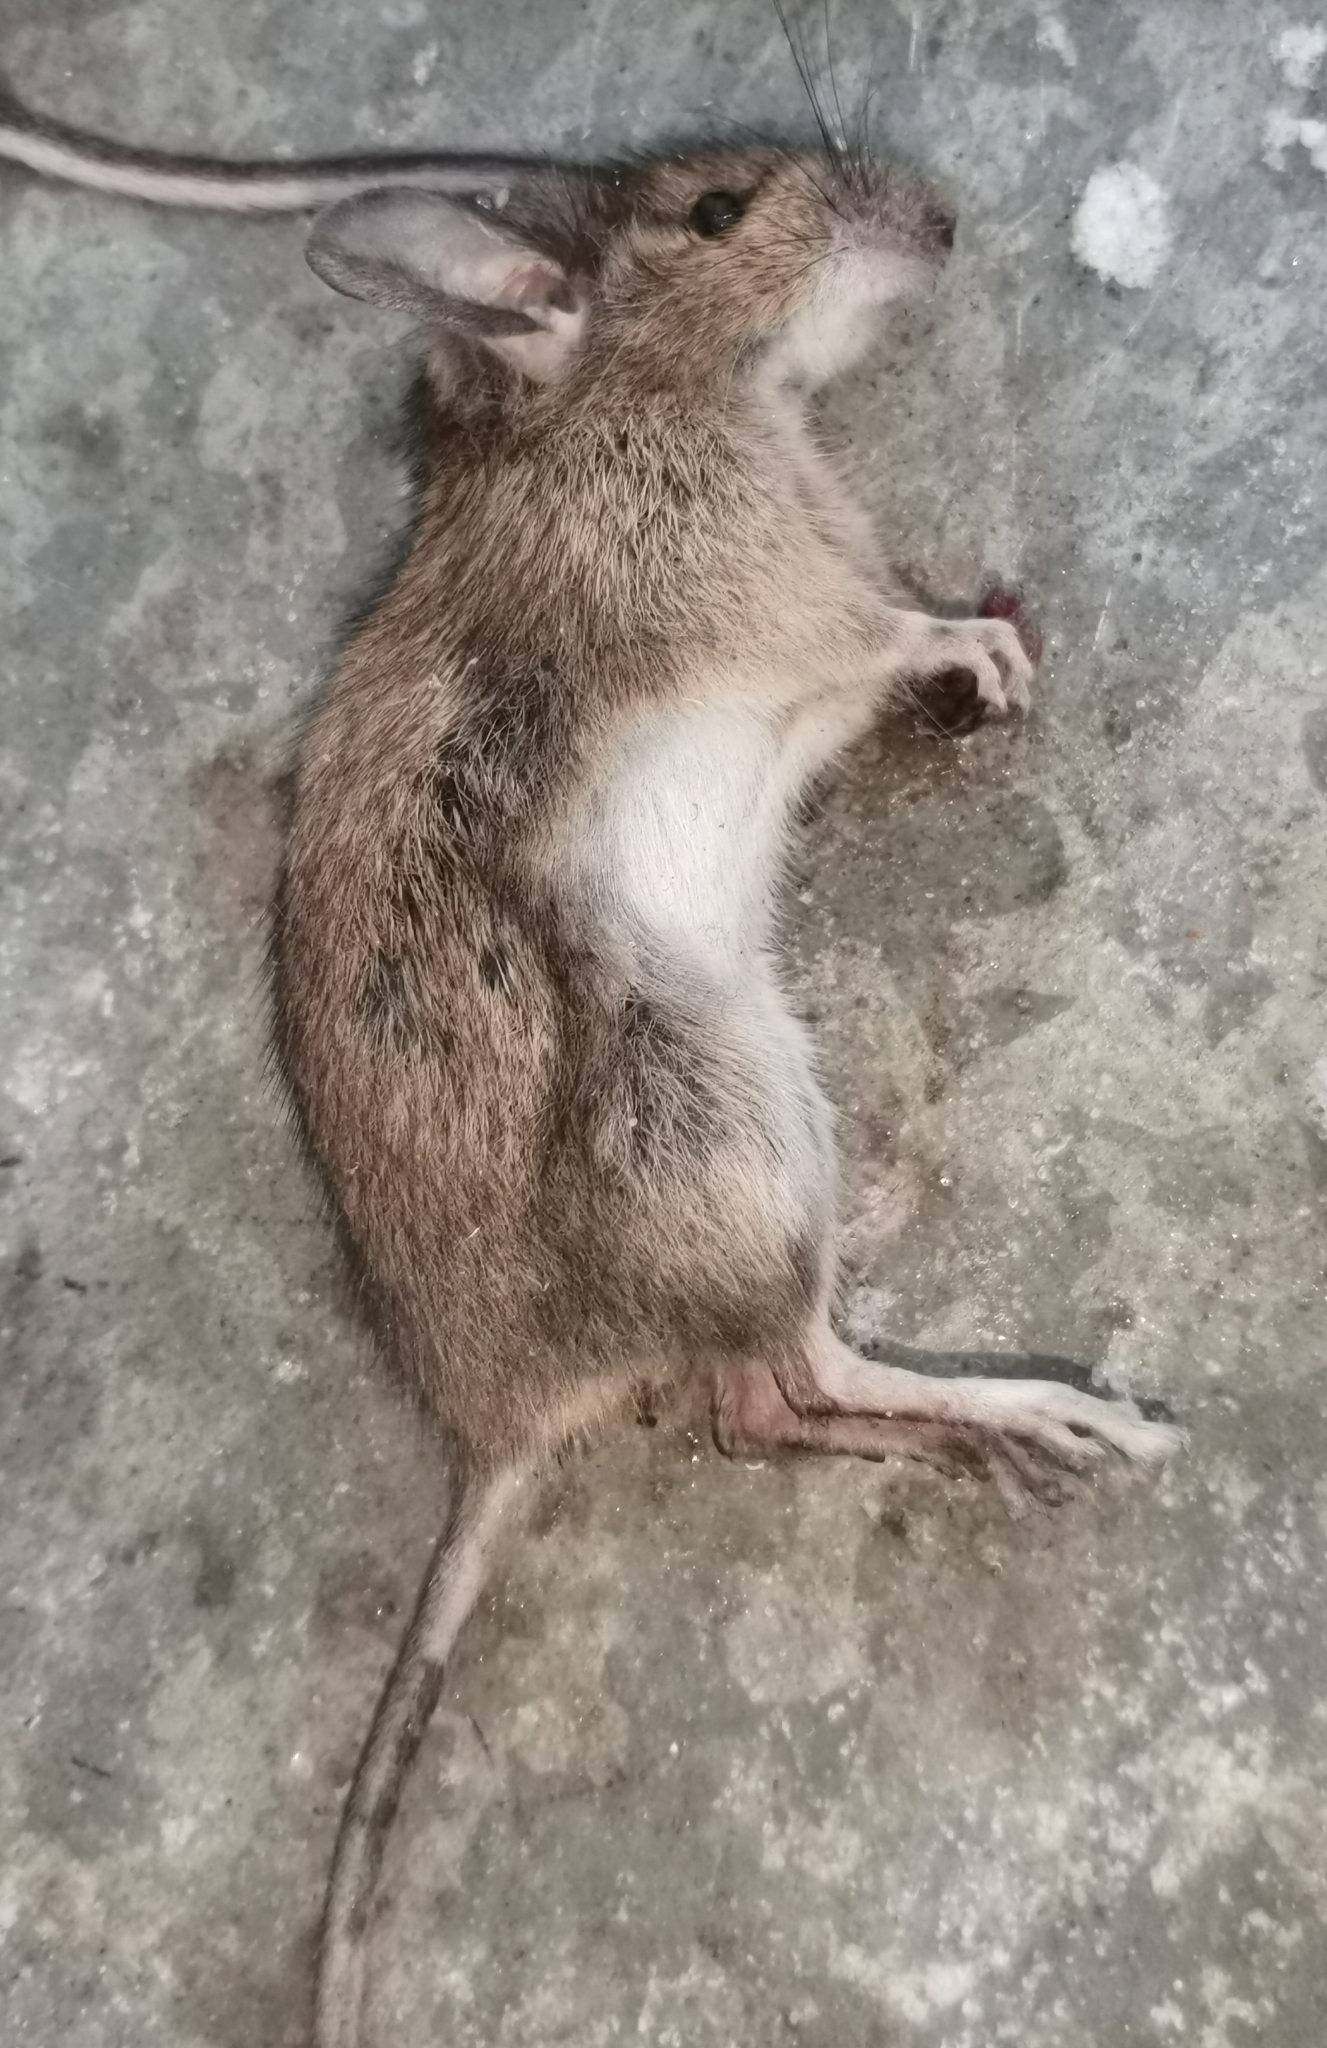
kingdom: Animalia
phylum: Chordata
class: Mammalia
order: Rodentia
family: Muridae
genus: Apodemus
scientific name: Apodemus flavicollis
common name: Yellow-necked field mouse
